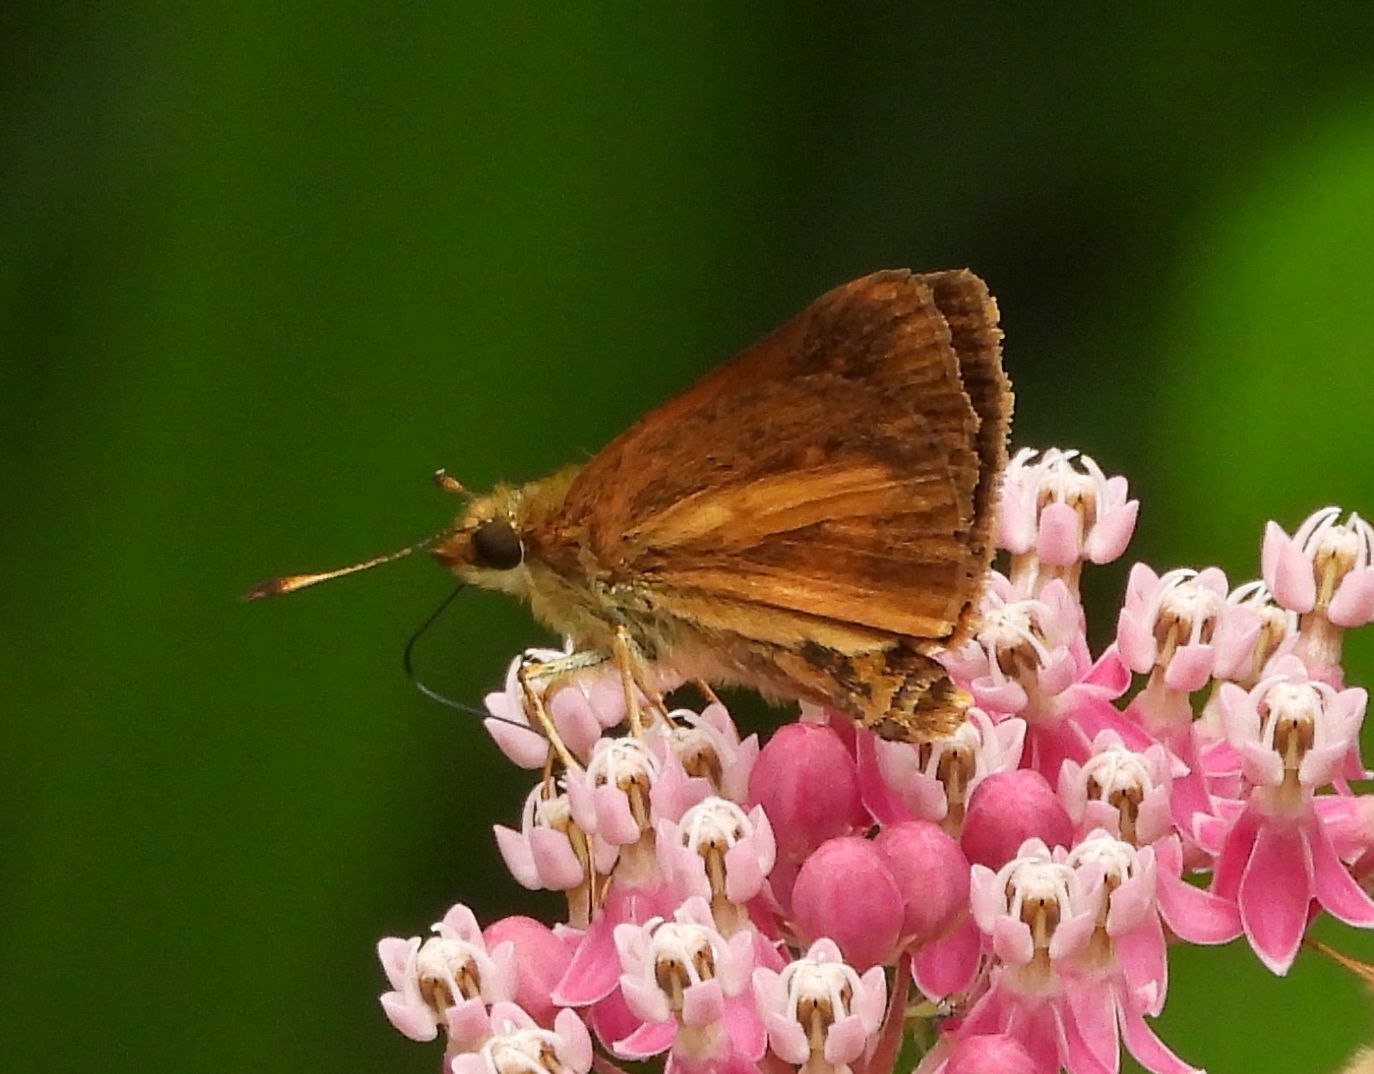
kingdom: Animalia
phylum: Arthropoda
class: Insecta
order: Lepidoptera
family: Hesperiidae
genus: Poanes
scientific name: Poanes viator
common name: Broad-winged skipper
